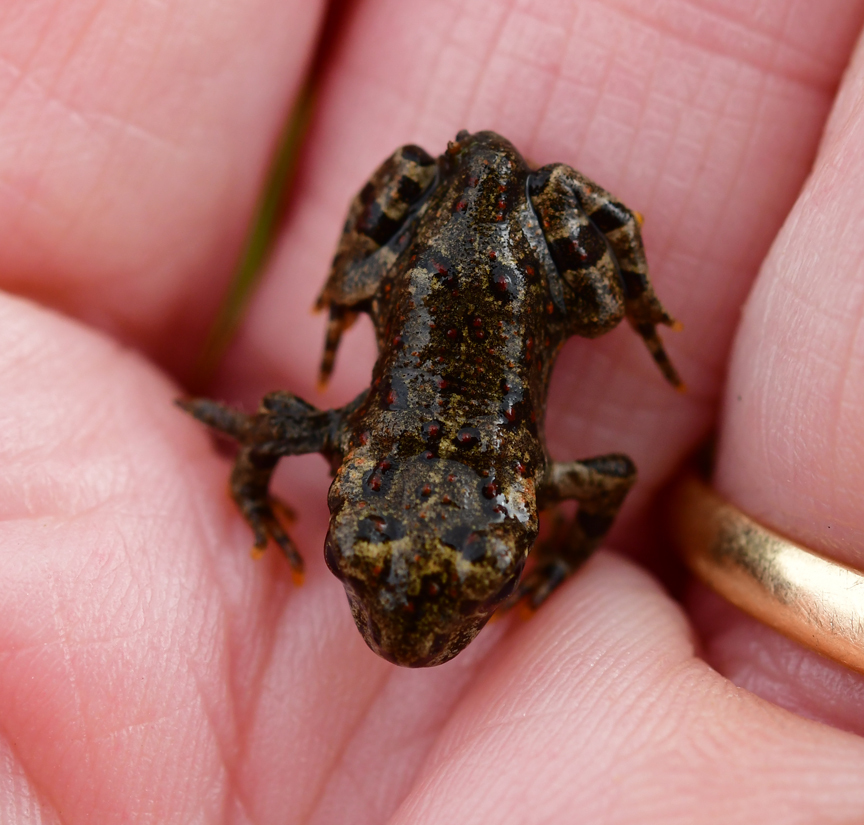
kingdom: Animalia
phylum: Chordata
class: Amphibia
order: Anura
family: Bufonidae
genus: Anaxyrus
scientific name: Anaxyrus boreas
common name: Western toad
